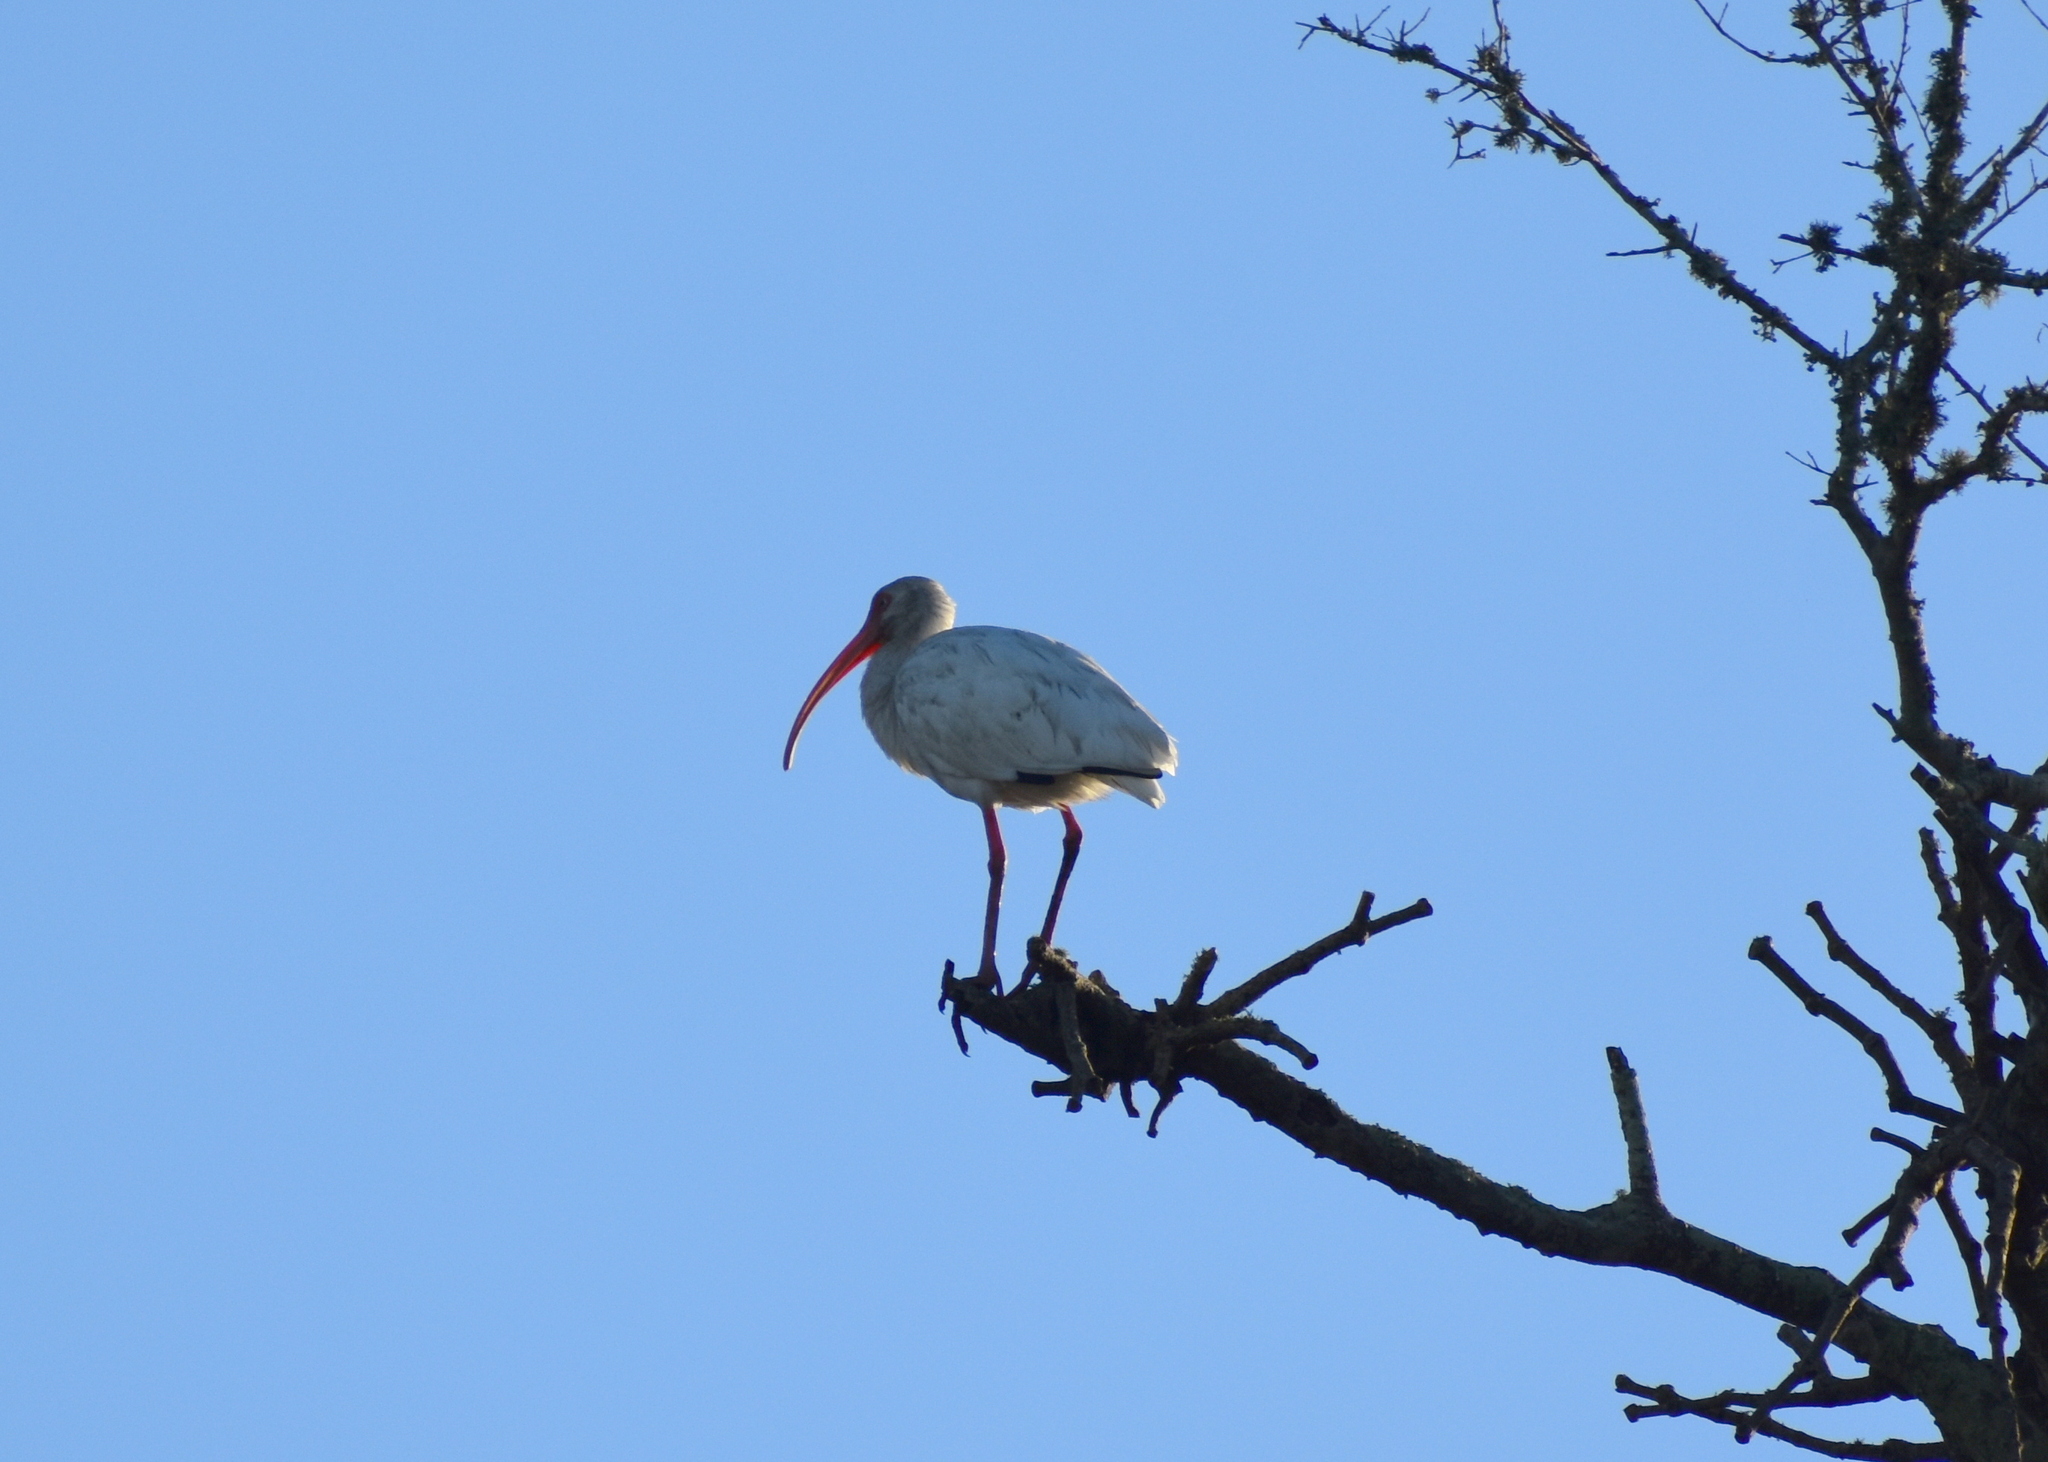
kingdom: Animalia
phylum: Chordata
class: Aves
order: Pelecaniformes
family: Threskiornithidae
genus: Eudocimus
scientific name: Eudocimus albus
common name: White ibis
